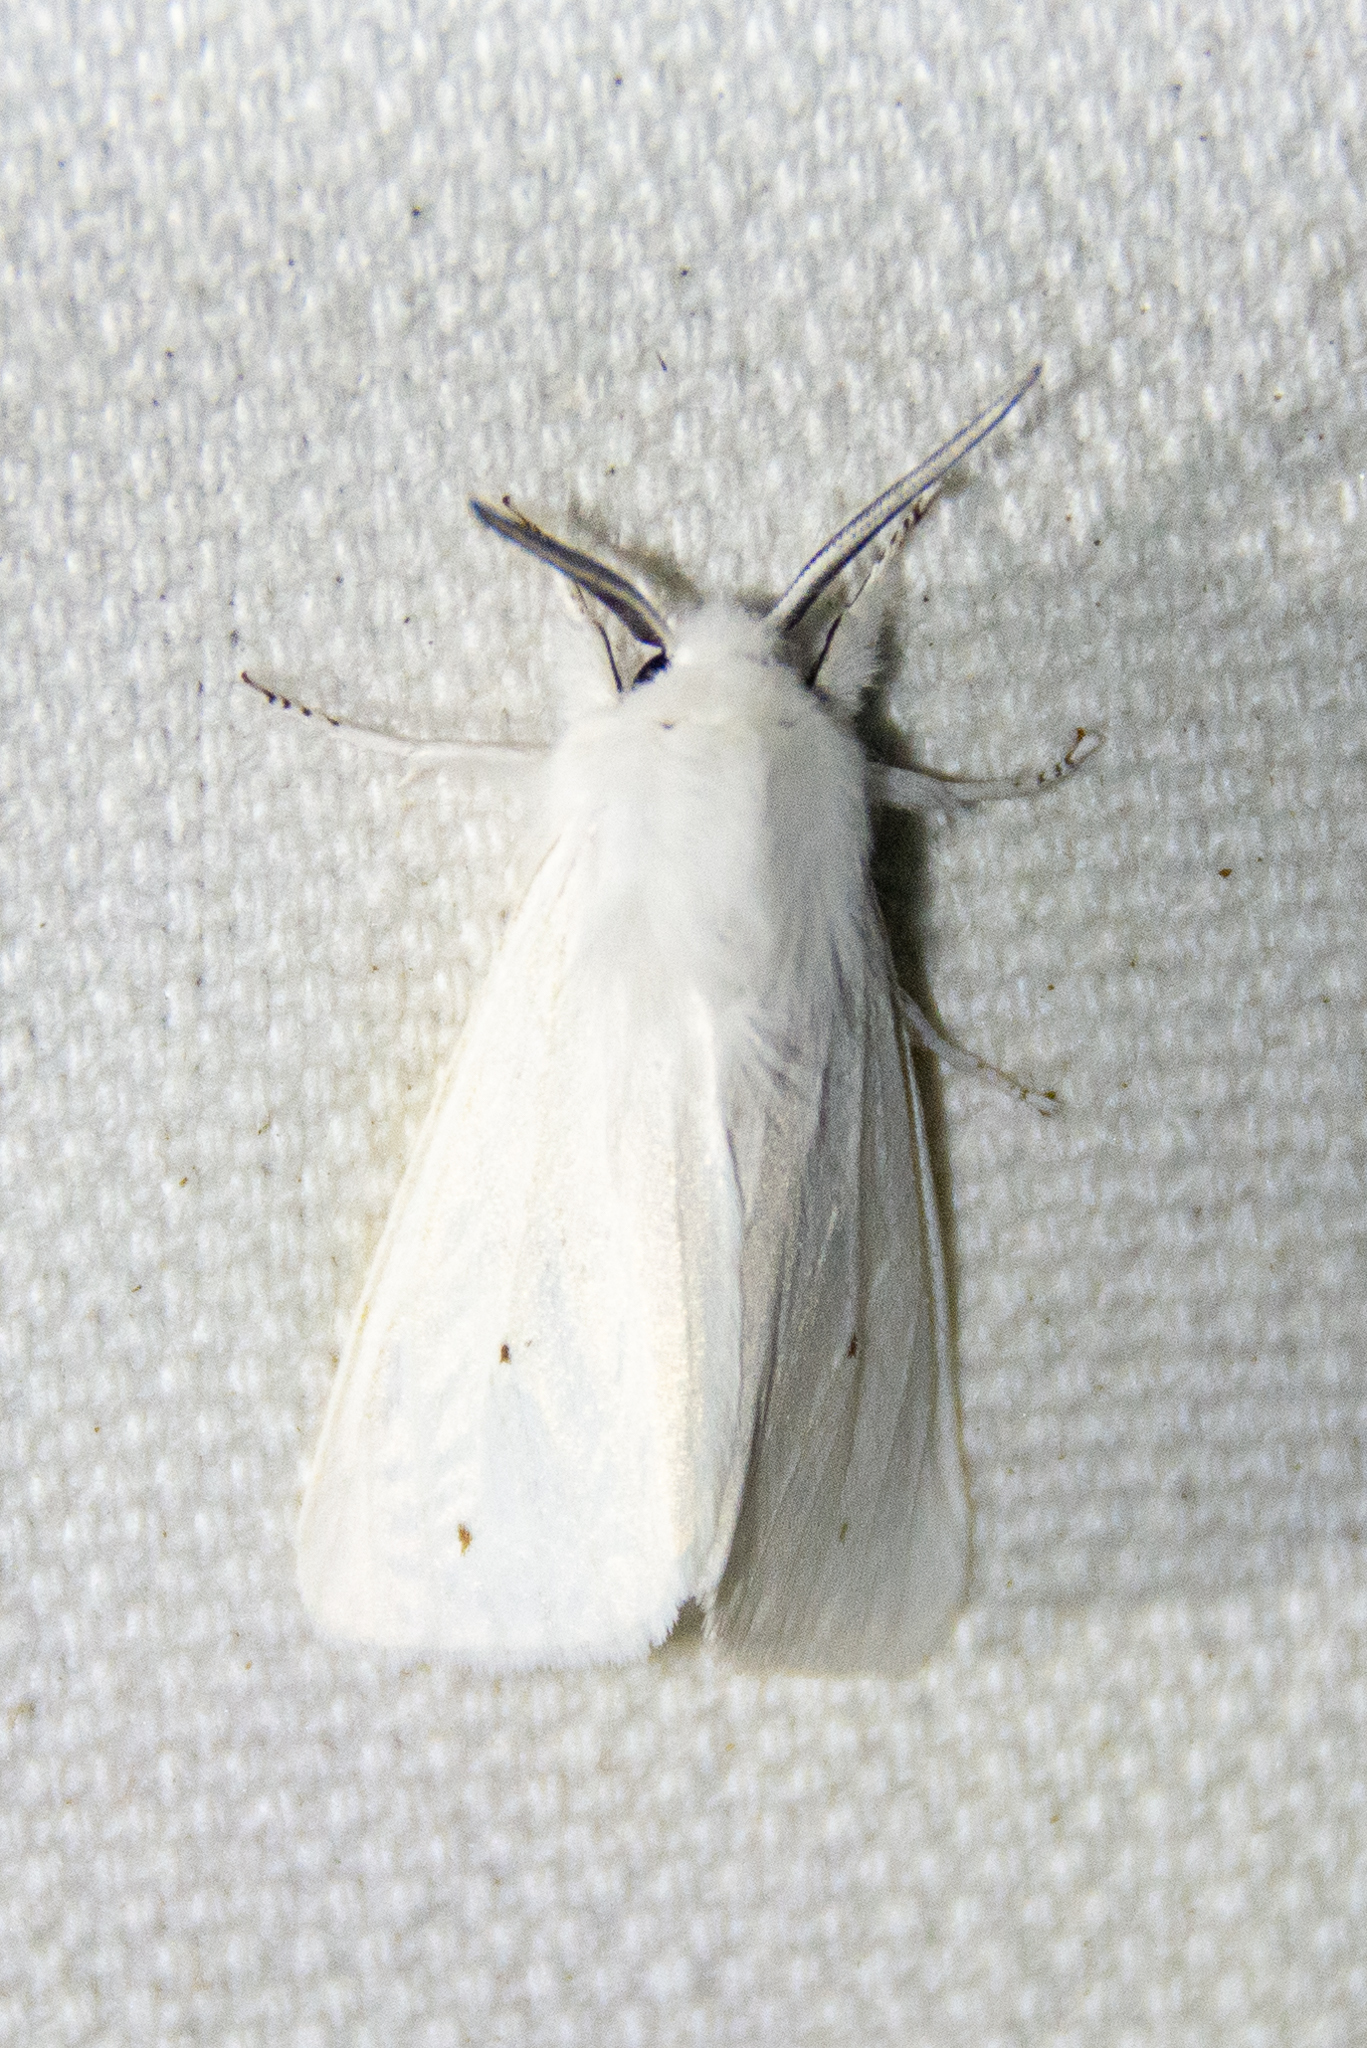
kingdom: Animalia
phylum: Arthropoda
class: Insecta
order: Lepidoptera
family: Erebidae
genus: Spilosoma
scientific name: Spilosoma virginica
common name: Virginia tiger moth
